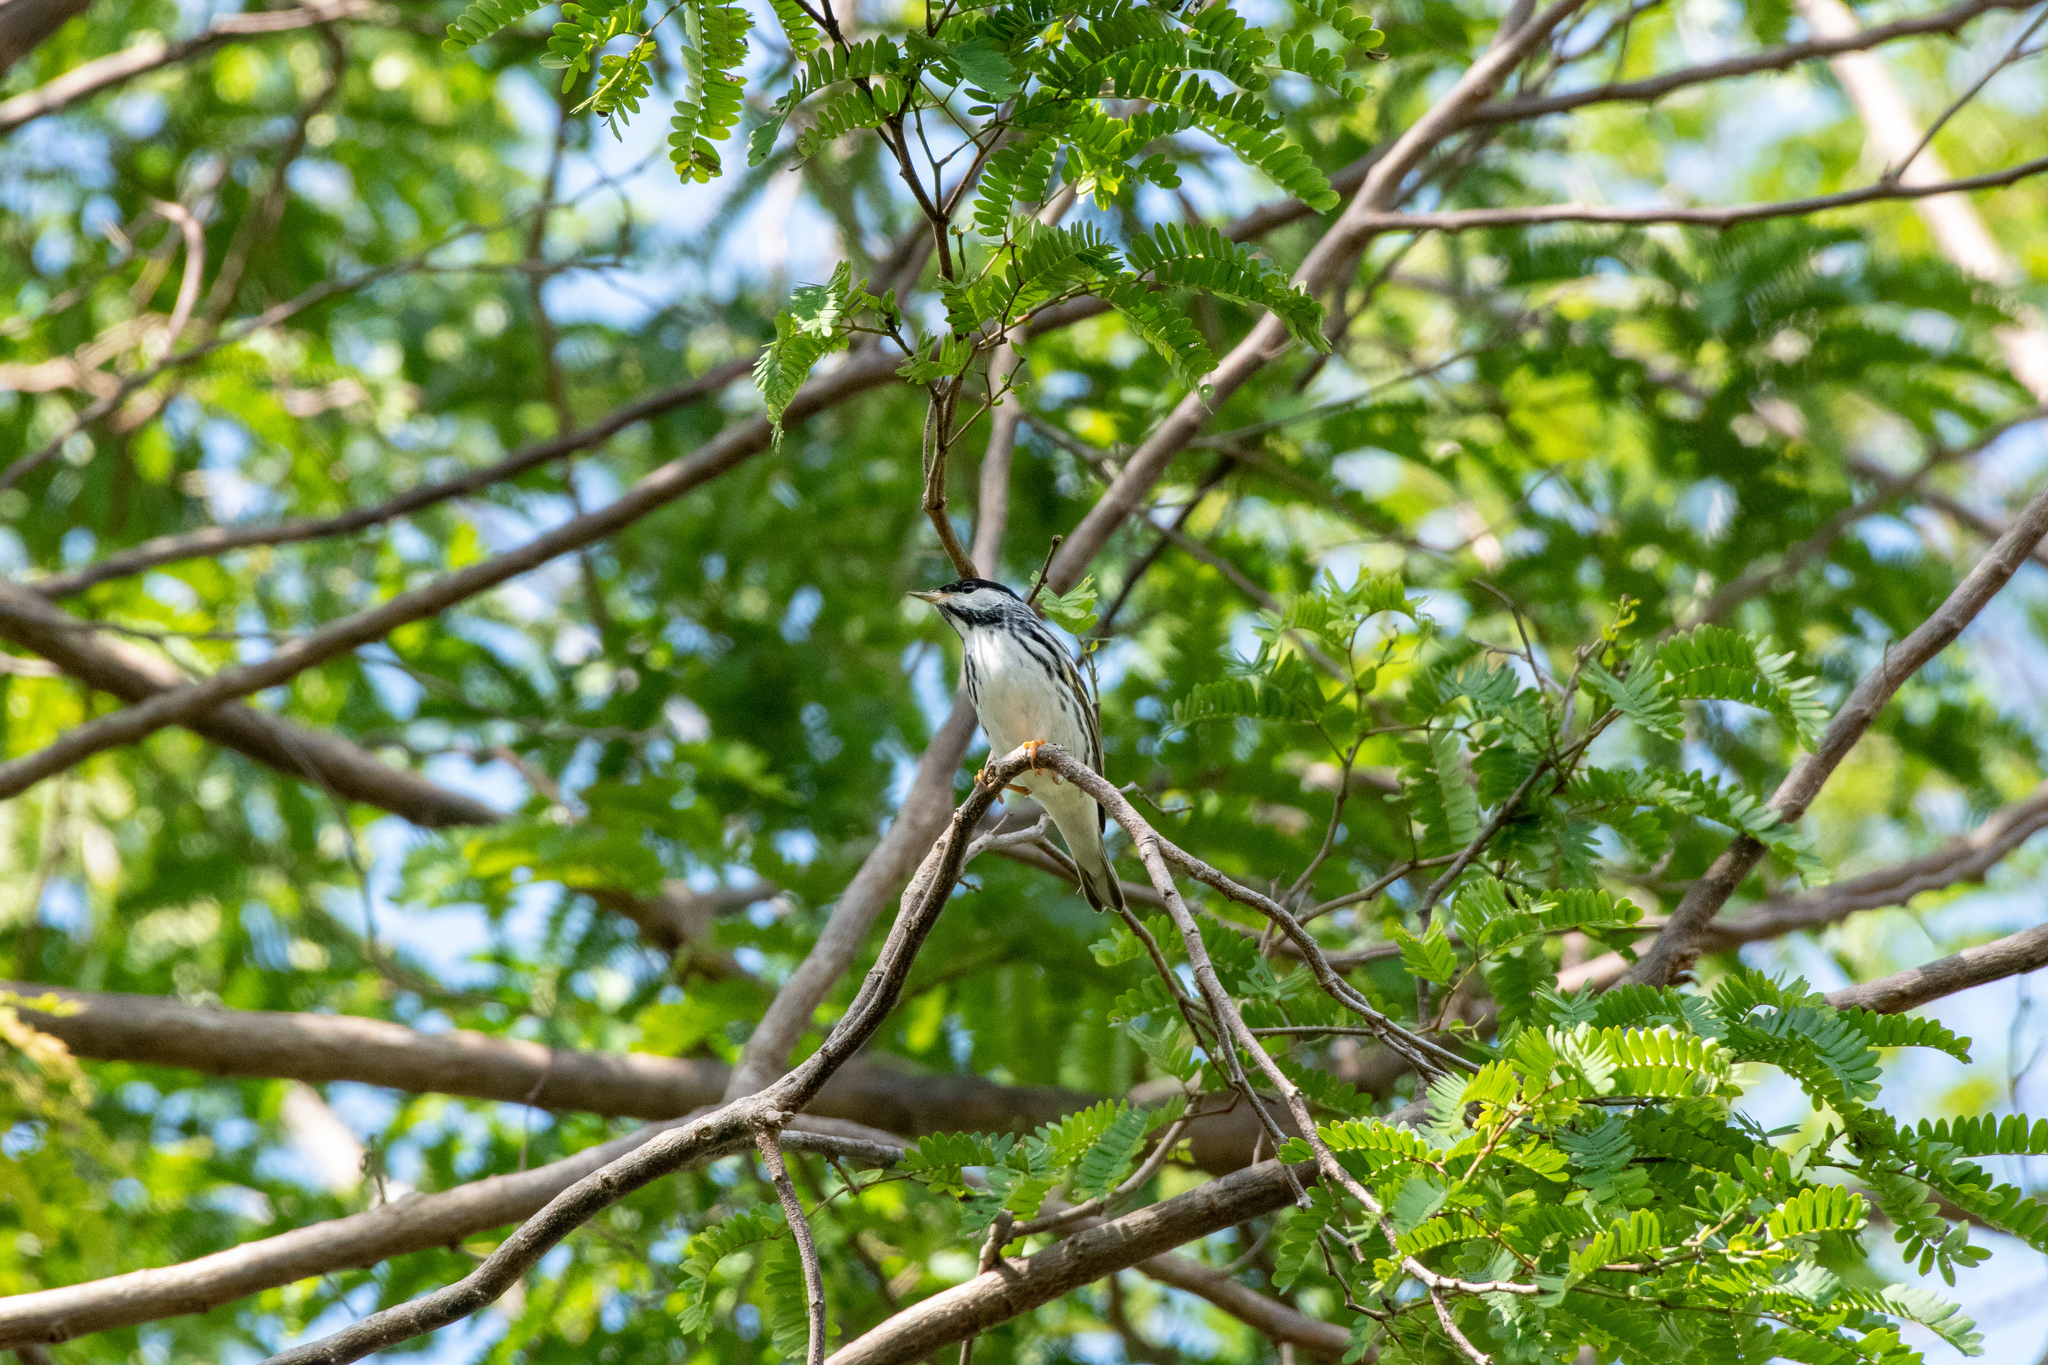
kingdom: Animalia
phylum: Chordata
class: Aves
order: Passeriformes
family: Parulidae
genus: Setophaga
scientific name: Setophaga striata
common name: Blackpoll warbler
